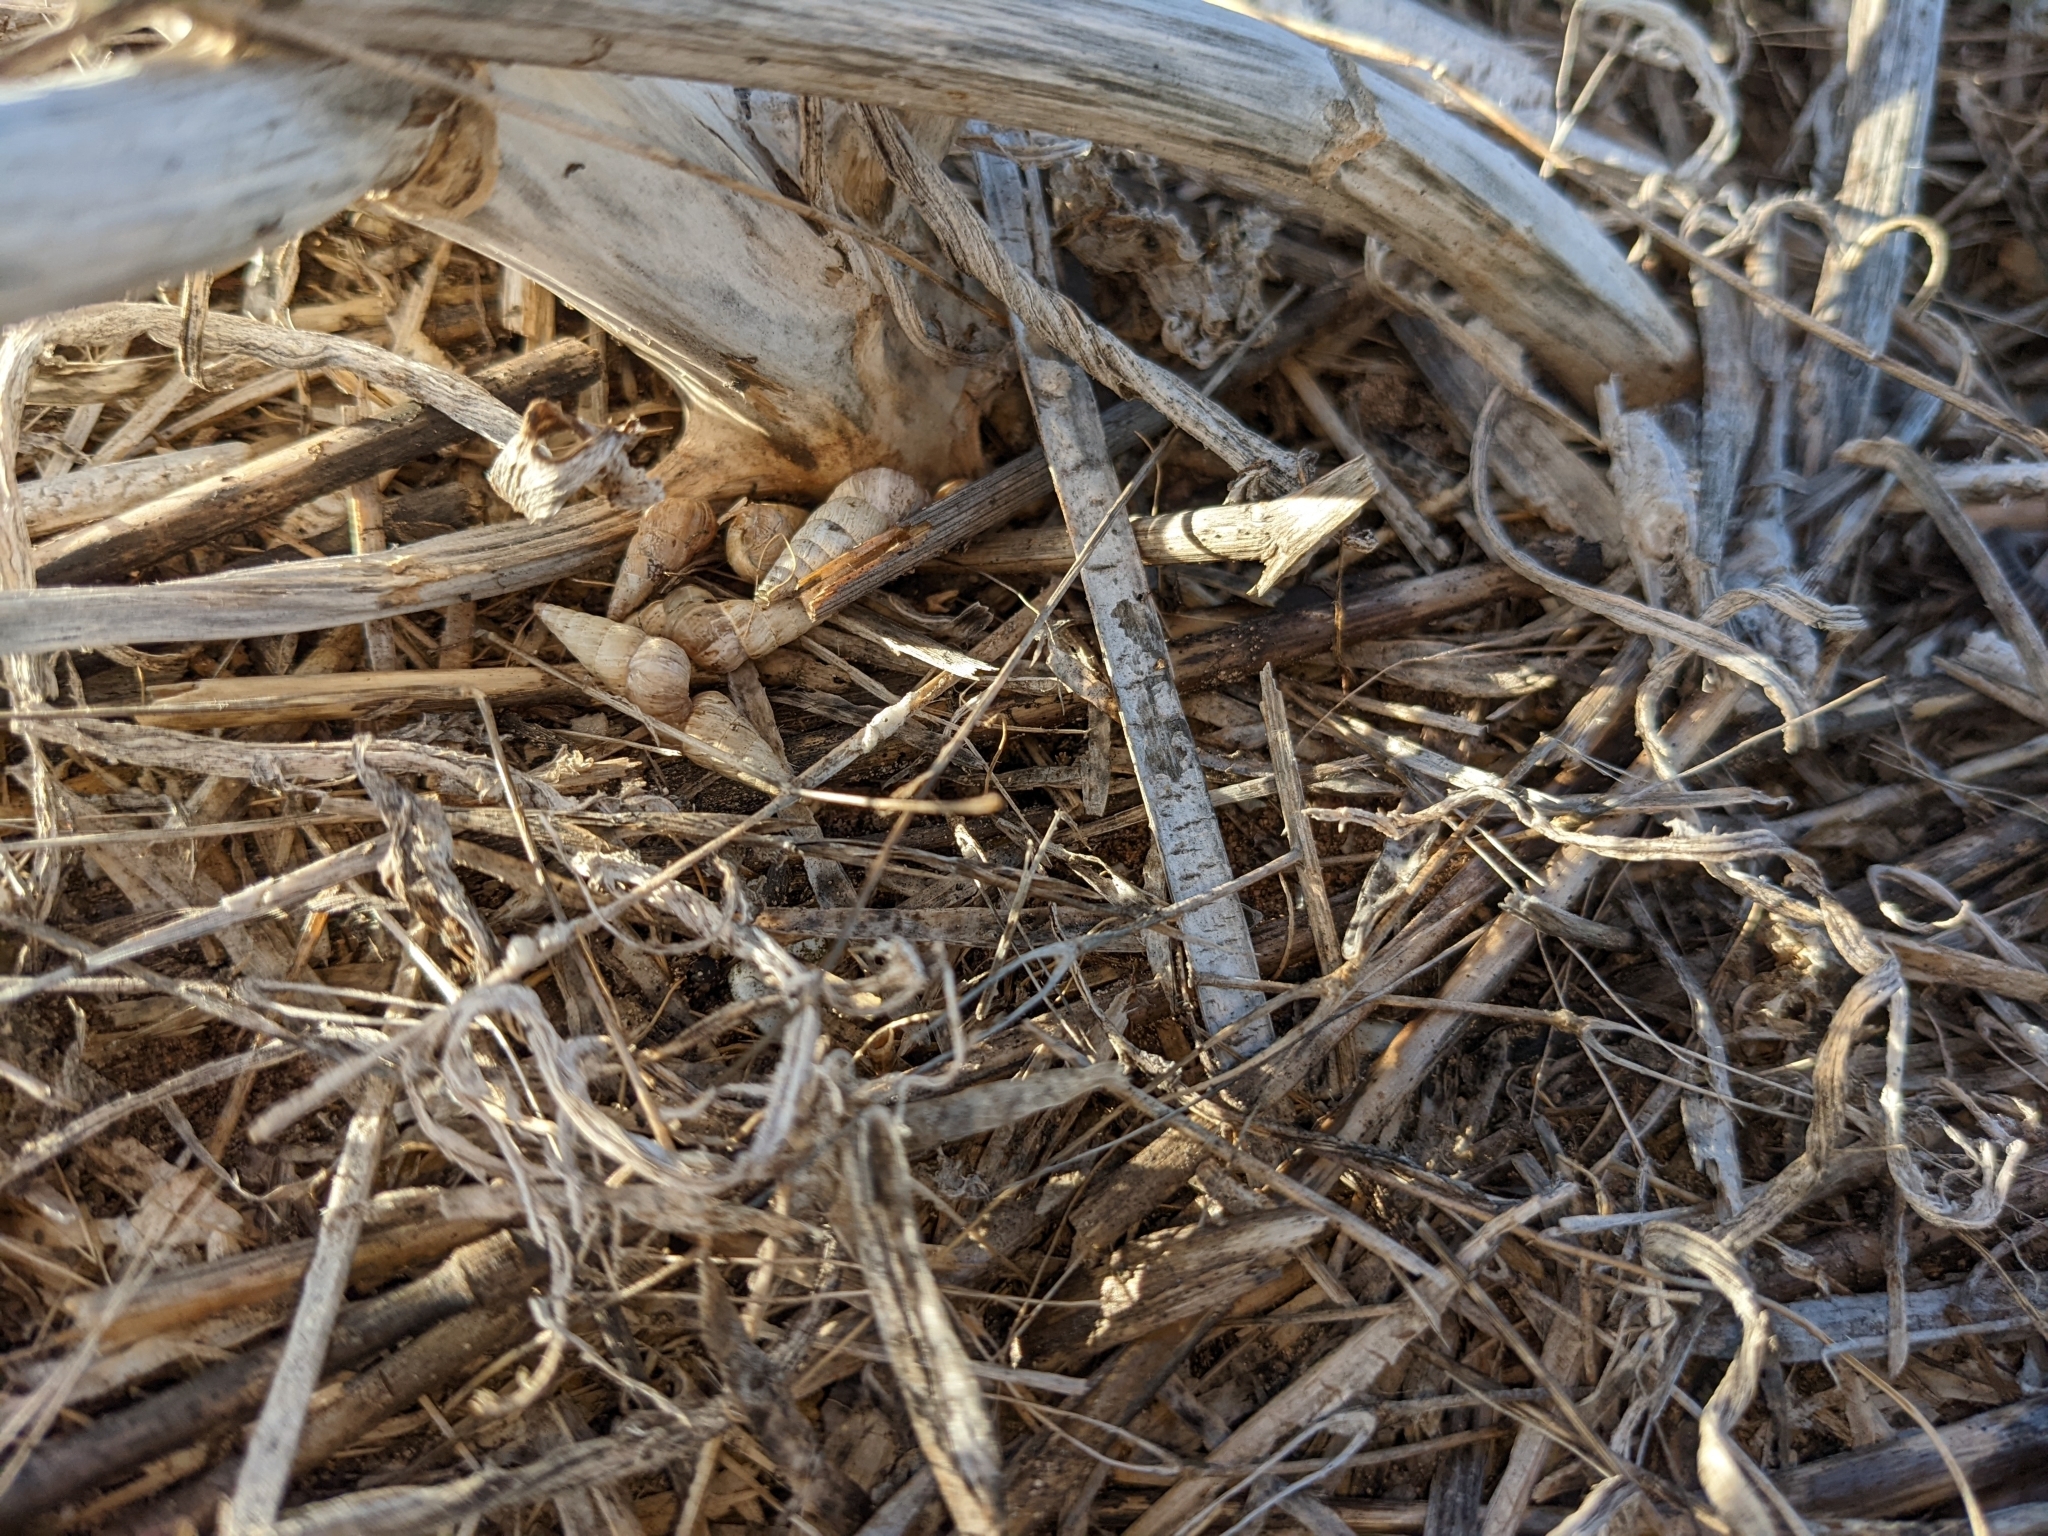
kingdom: Animalia
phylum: Mollusca
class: Gastropoda
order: Stylommatophora
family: Geomitridae
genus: Cochlicella
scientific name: Cochlicella acuta
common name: Pointed snail
